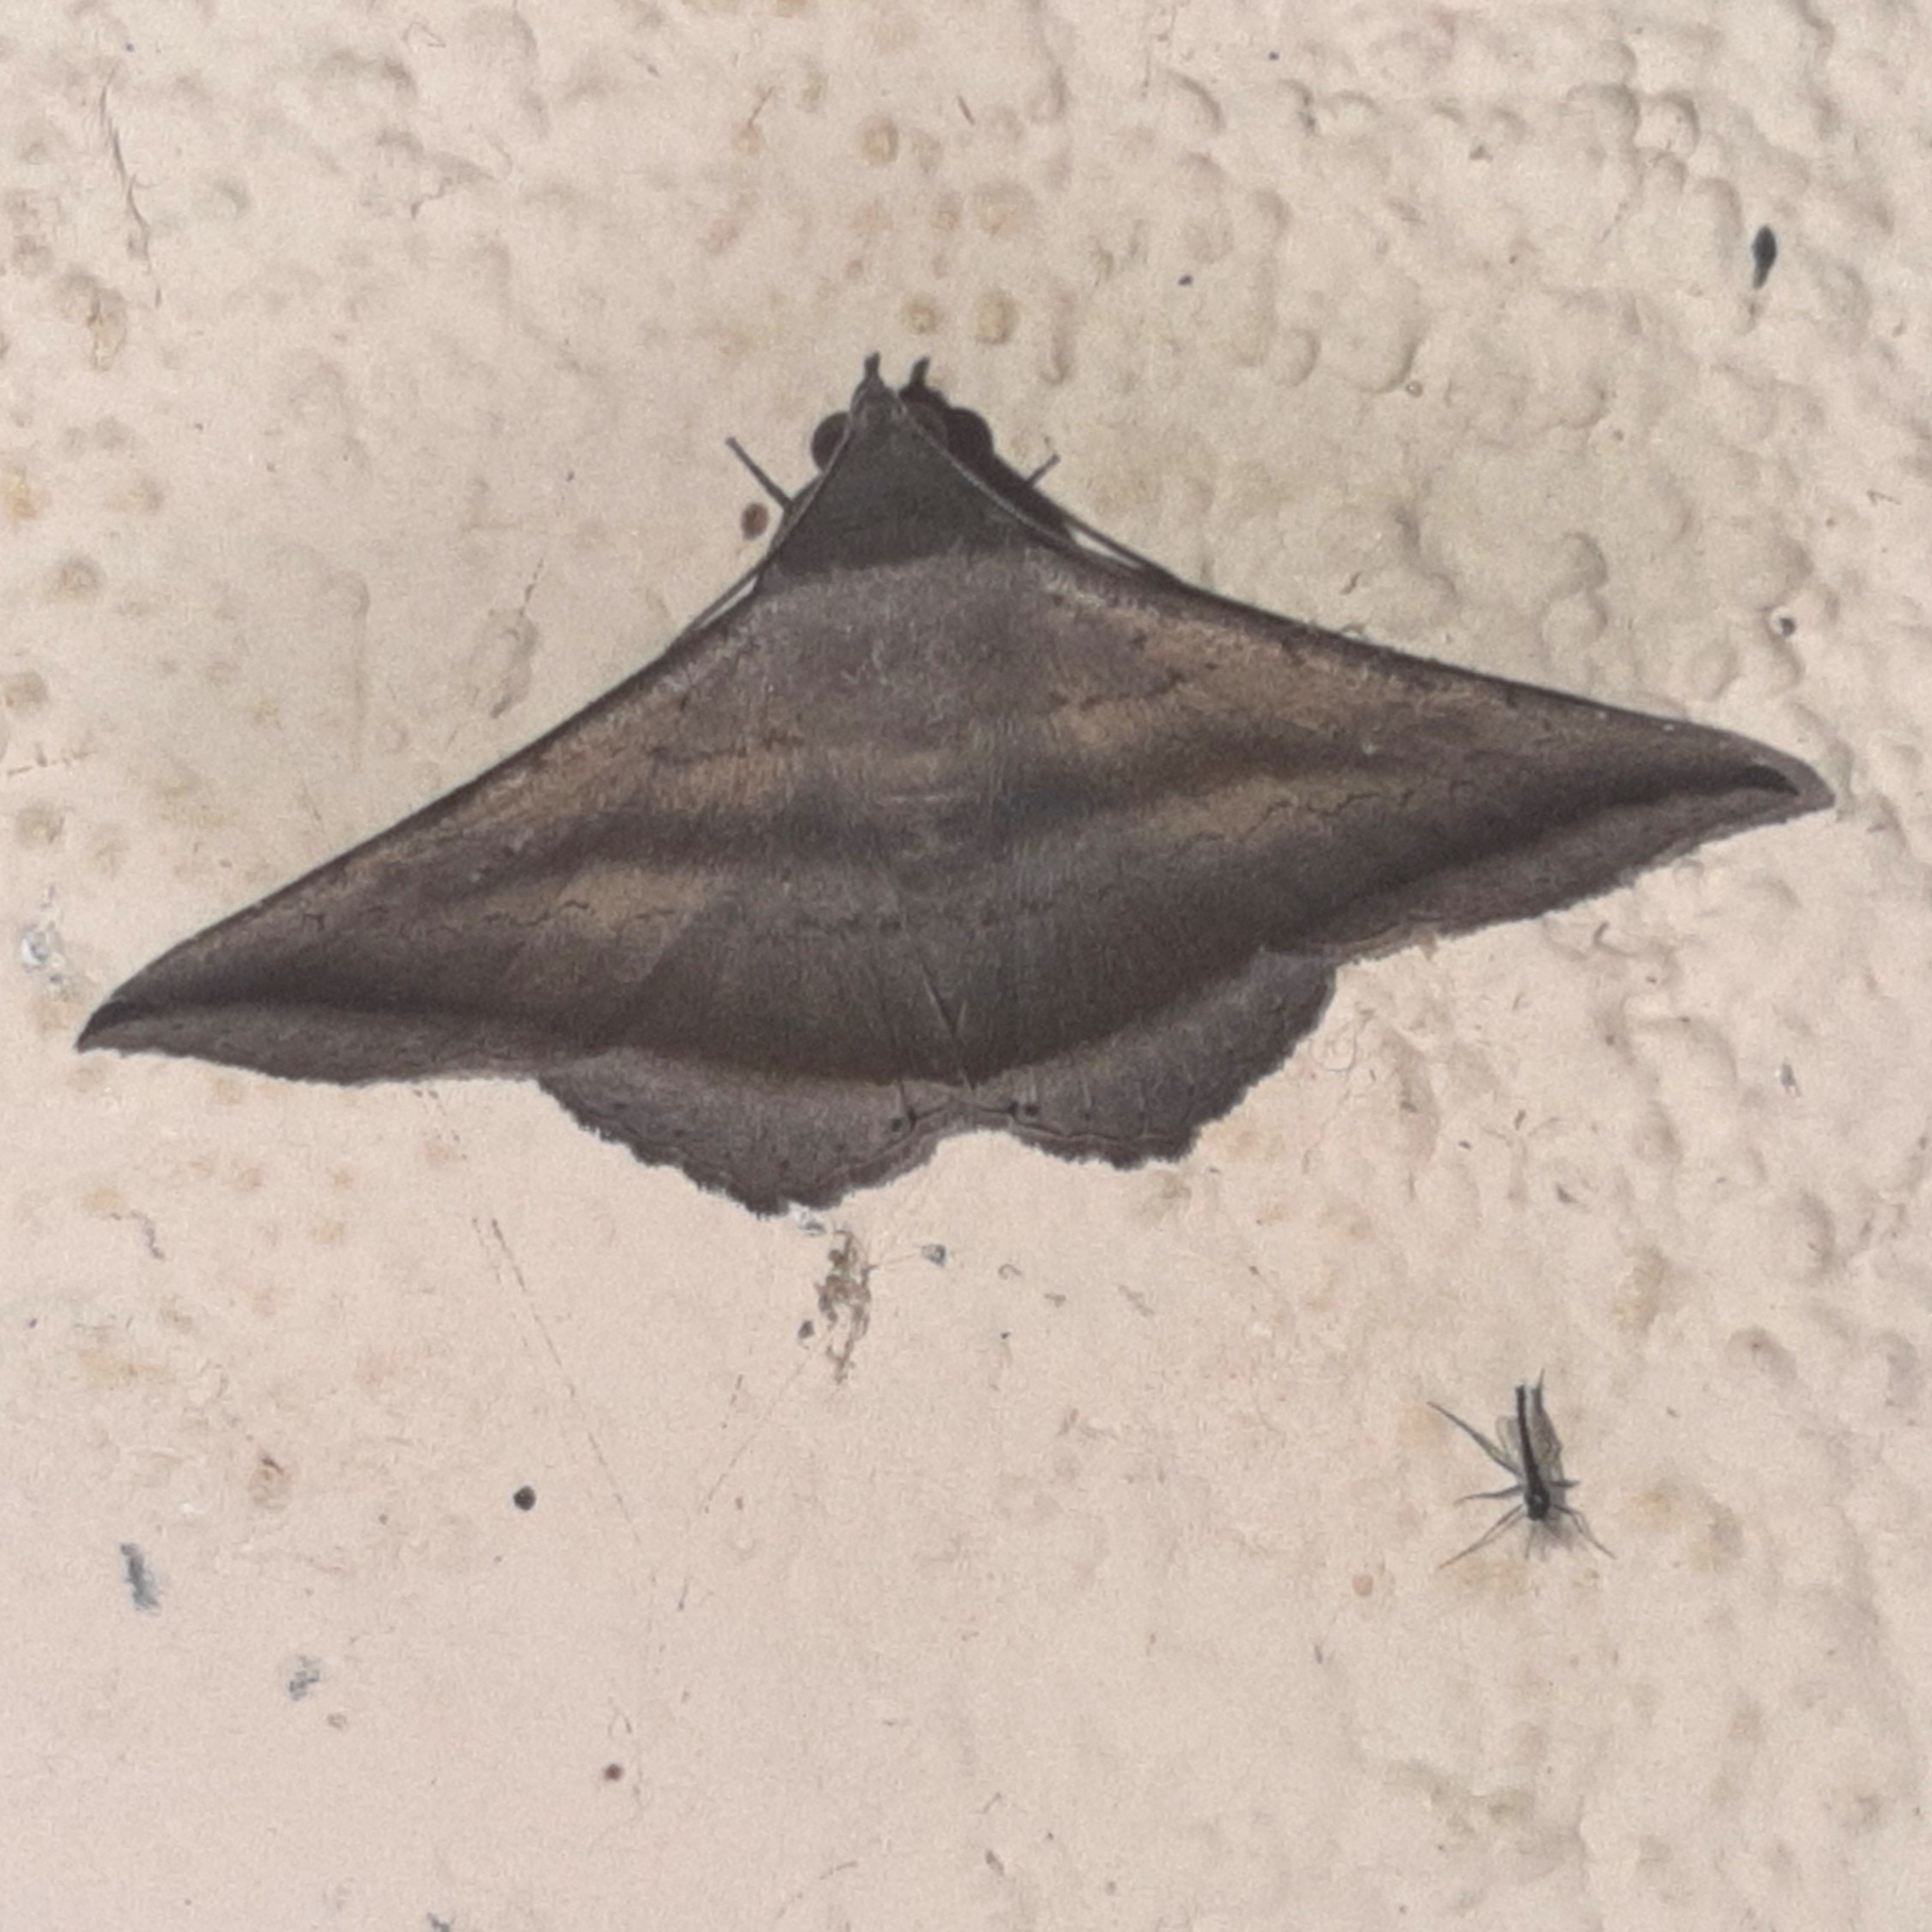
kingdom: Animalia
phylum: Arthropoda
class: Insecta
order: Lepidoptera
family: Erebidae
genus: Lesmone
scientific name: Lesmone formularis
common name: Lesmone moth
